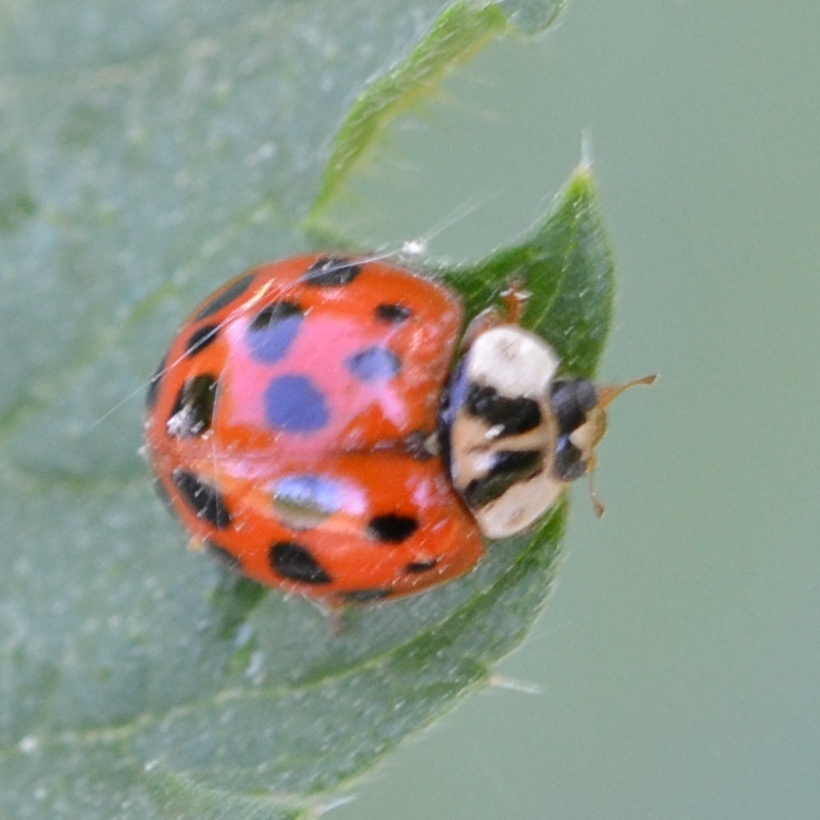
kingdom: Animalia
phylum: Arthropoda
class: Insecta
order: Coleoptera
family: Coccinellidae
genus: Harmonia
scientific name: Harmonia axyridis
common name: Harlequin ladybird
